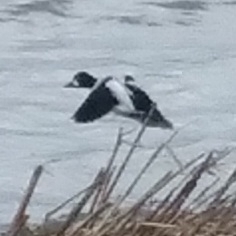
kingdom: Animalia
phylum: Chordata
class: Aves
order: Anseriformes
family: Anatidae
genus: Bucephala
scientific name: Bucephala clangula
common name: Common goldeneye
